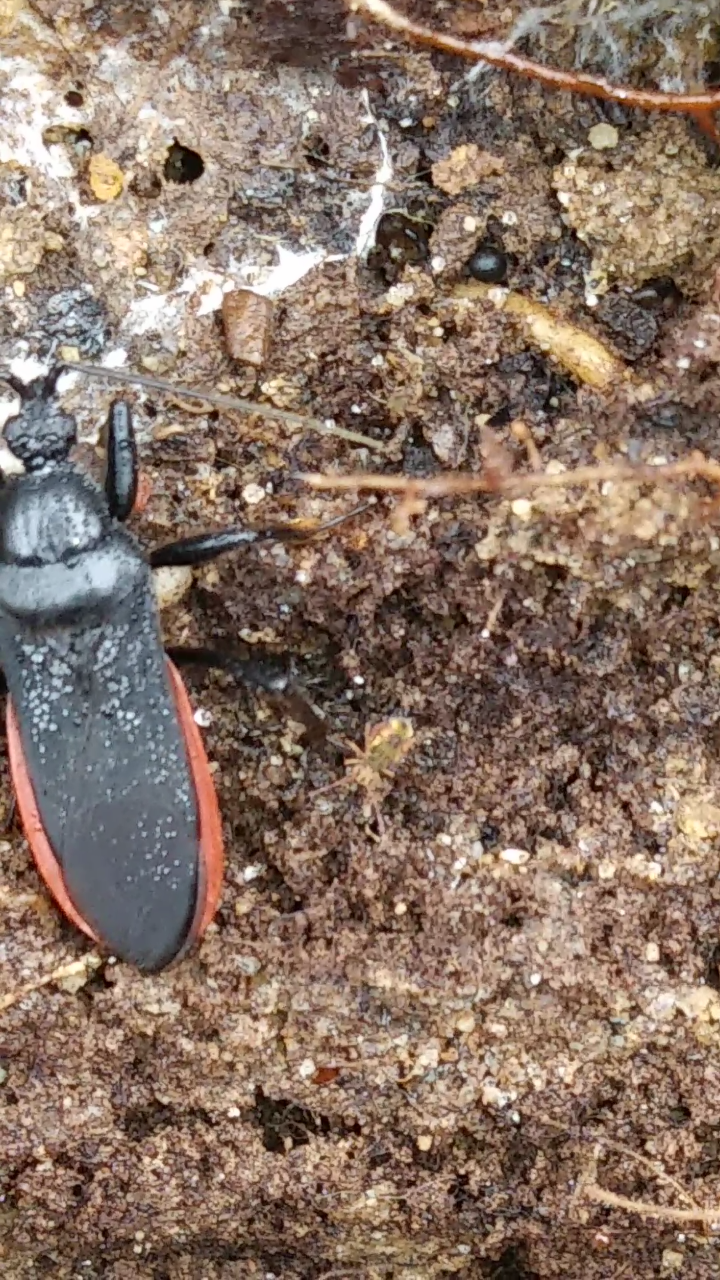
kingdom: Animalia
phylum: Arthropoda
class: Insecta
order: Hemiptera
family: Reduviidae
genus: Melanolestes
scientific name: Melanolestes picipes
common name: Assassin bug
